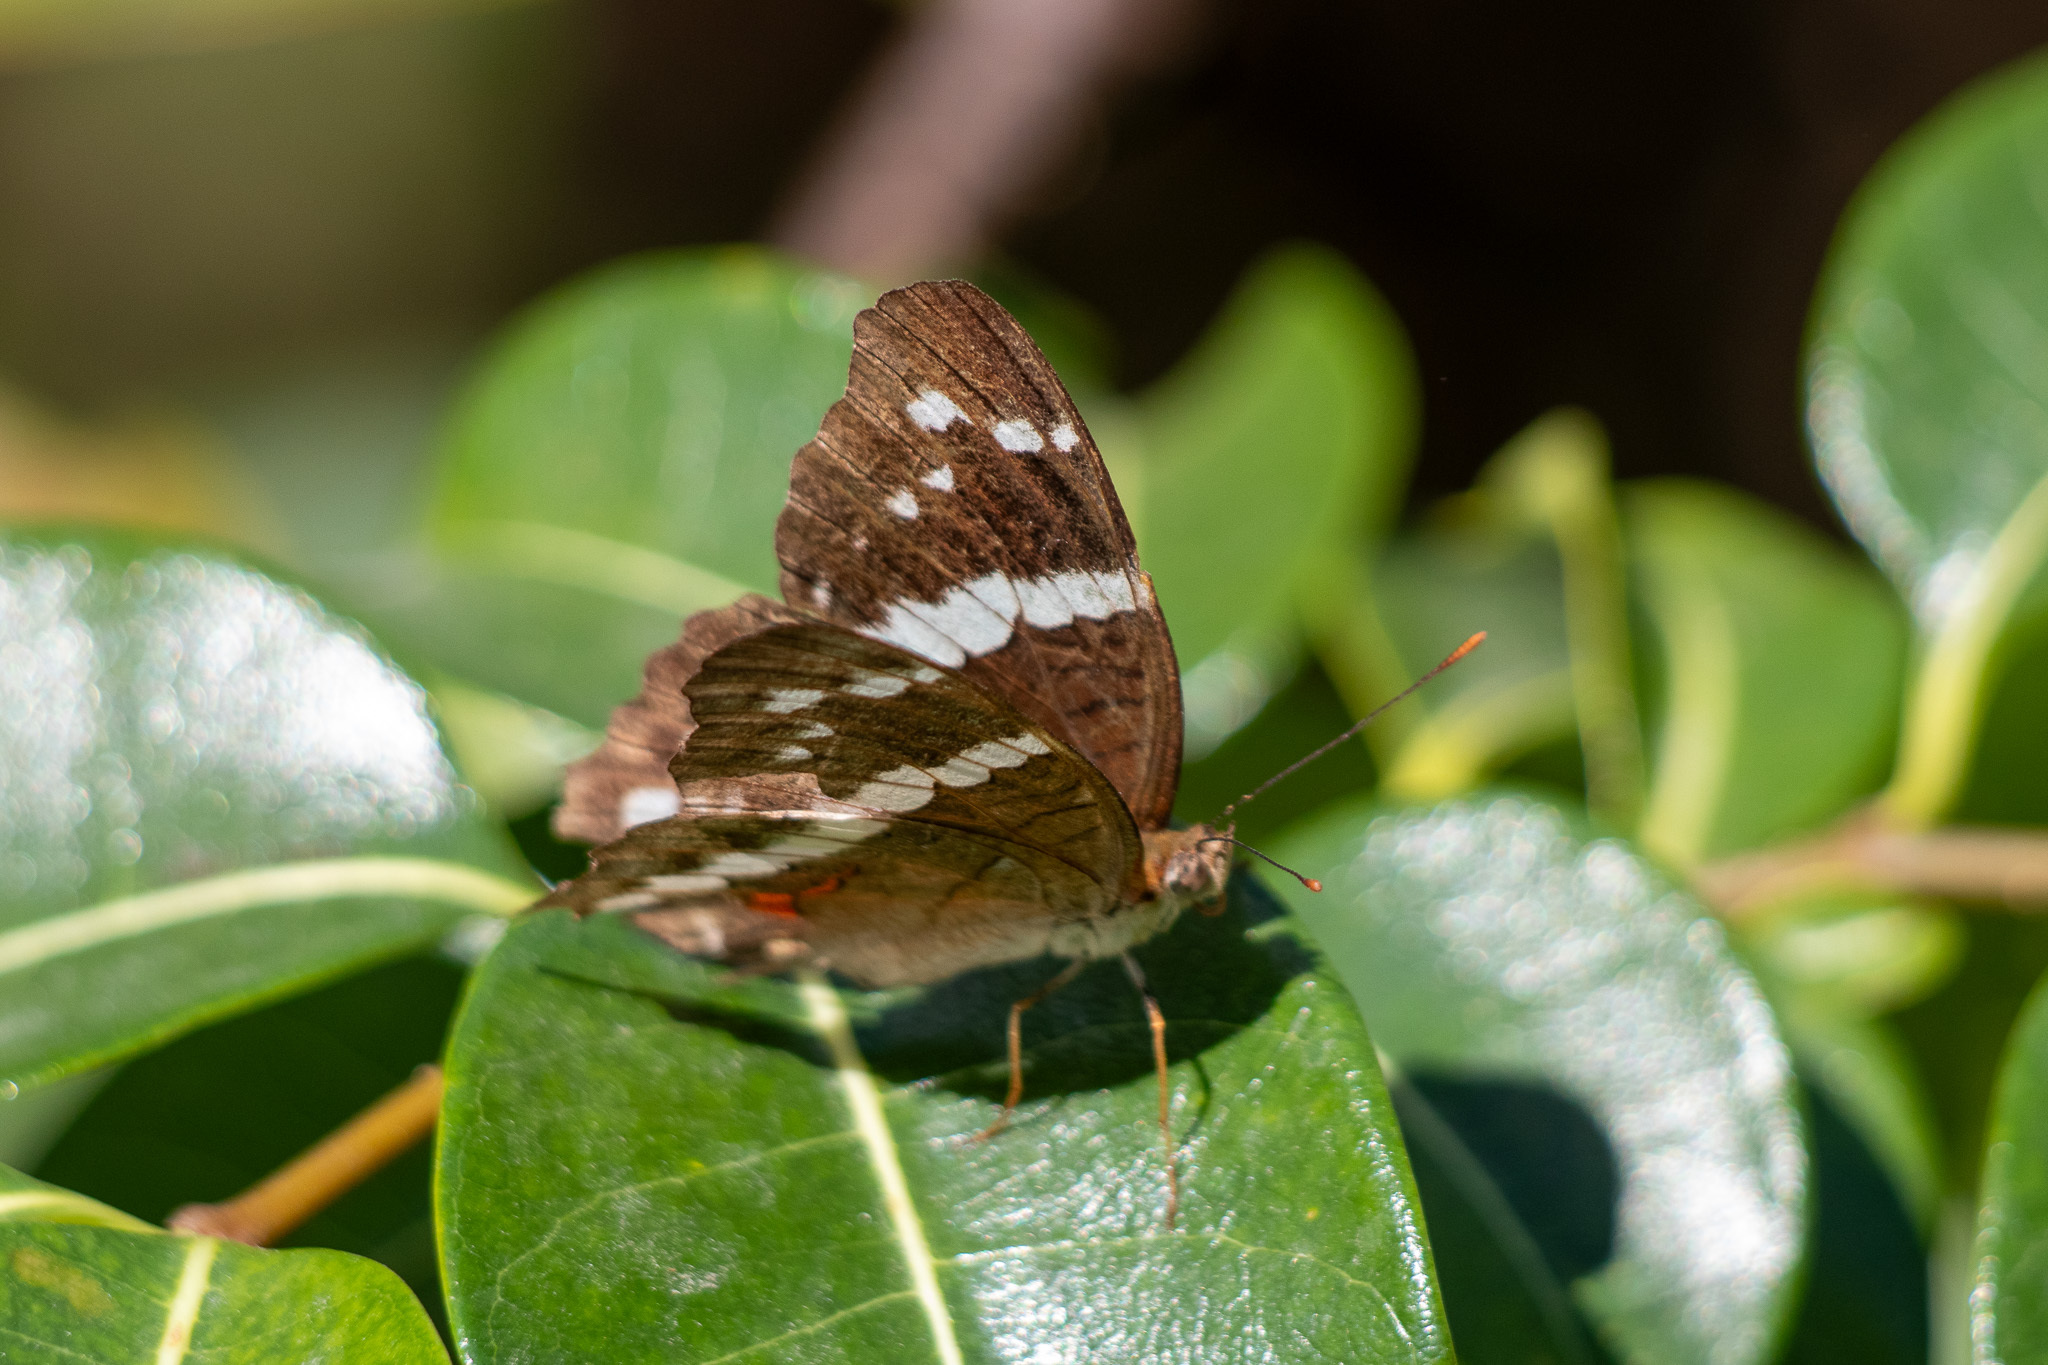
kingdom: Animalia
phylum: Arthropoda
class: Insecta
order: Lepidoptera
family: Nymphalidae
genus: Anartia
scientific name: Anartia fatima
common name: Banded peacock
